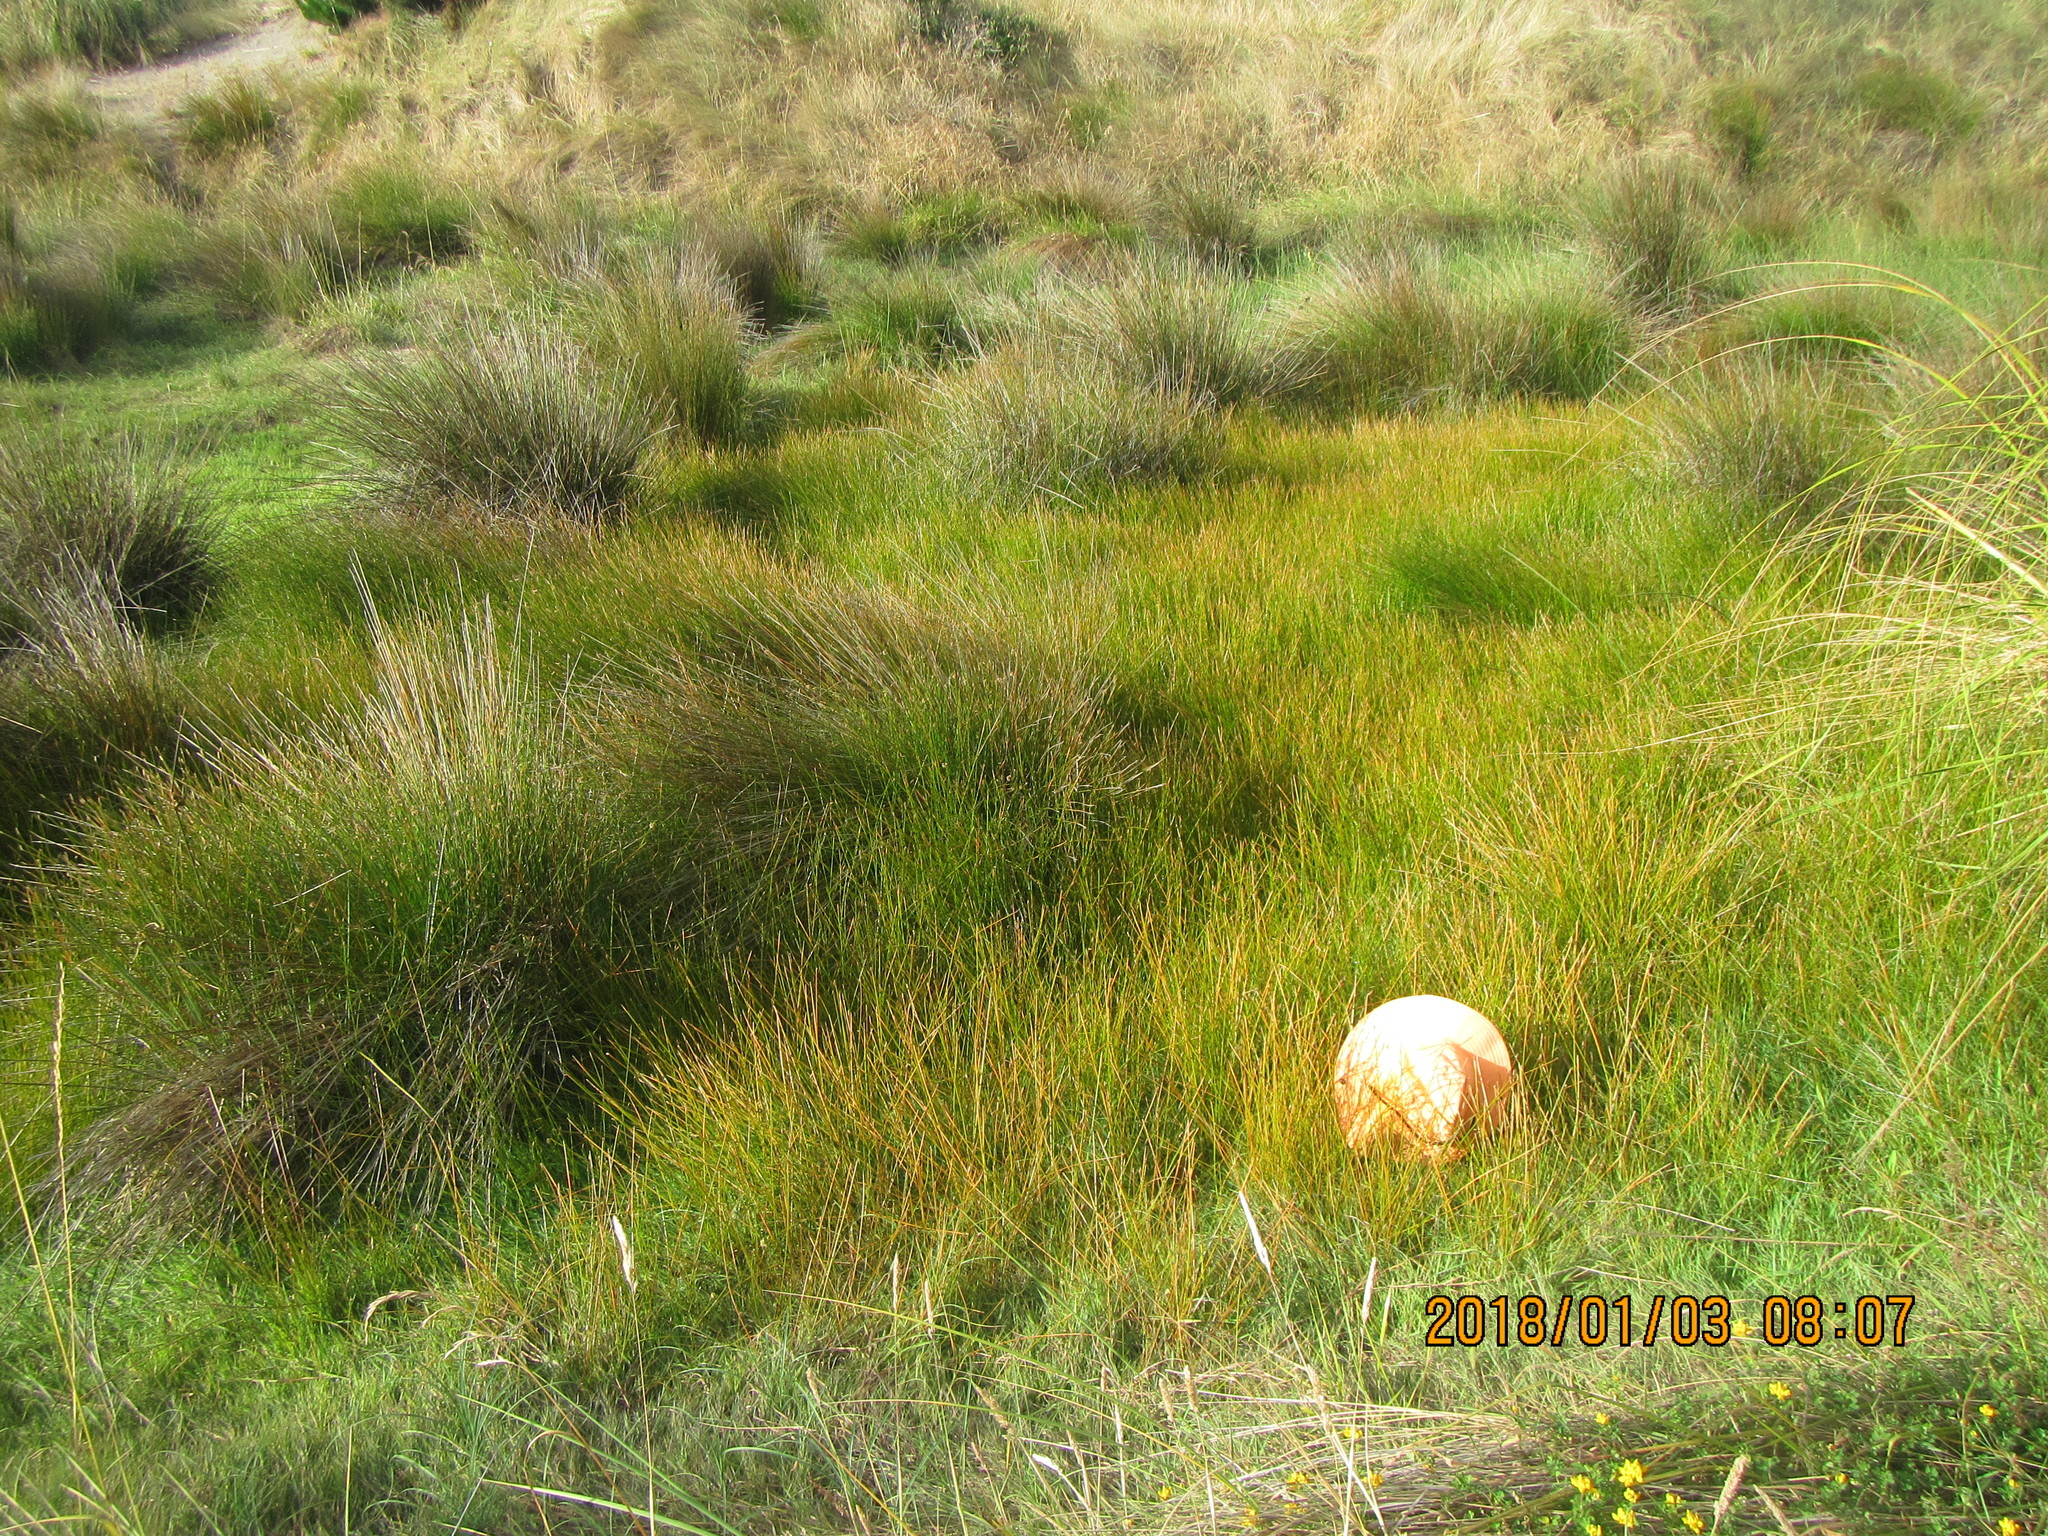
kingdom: Plantae
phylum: Tracheophyta
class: Liliopsida
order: Poales
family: Cyperaceae
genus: Eleocharis
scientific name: Eleocharis acuta
